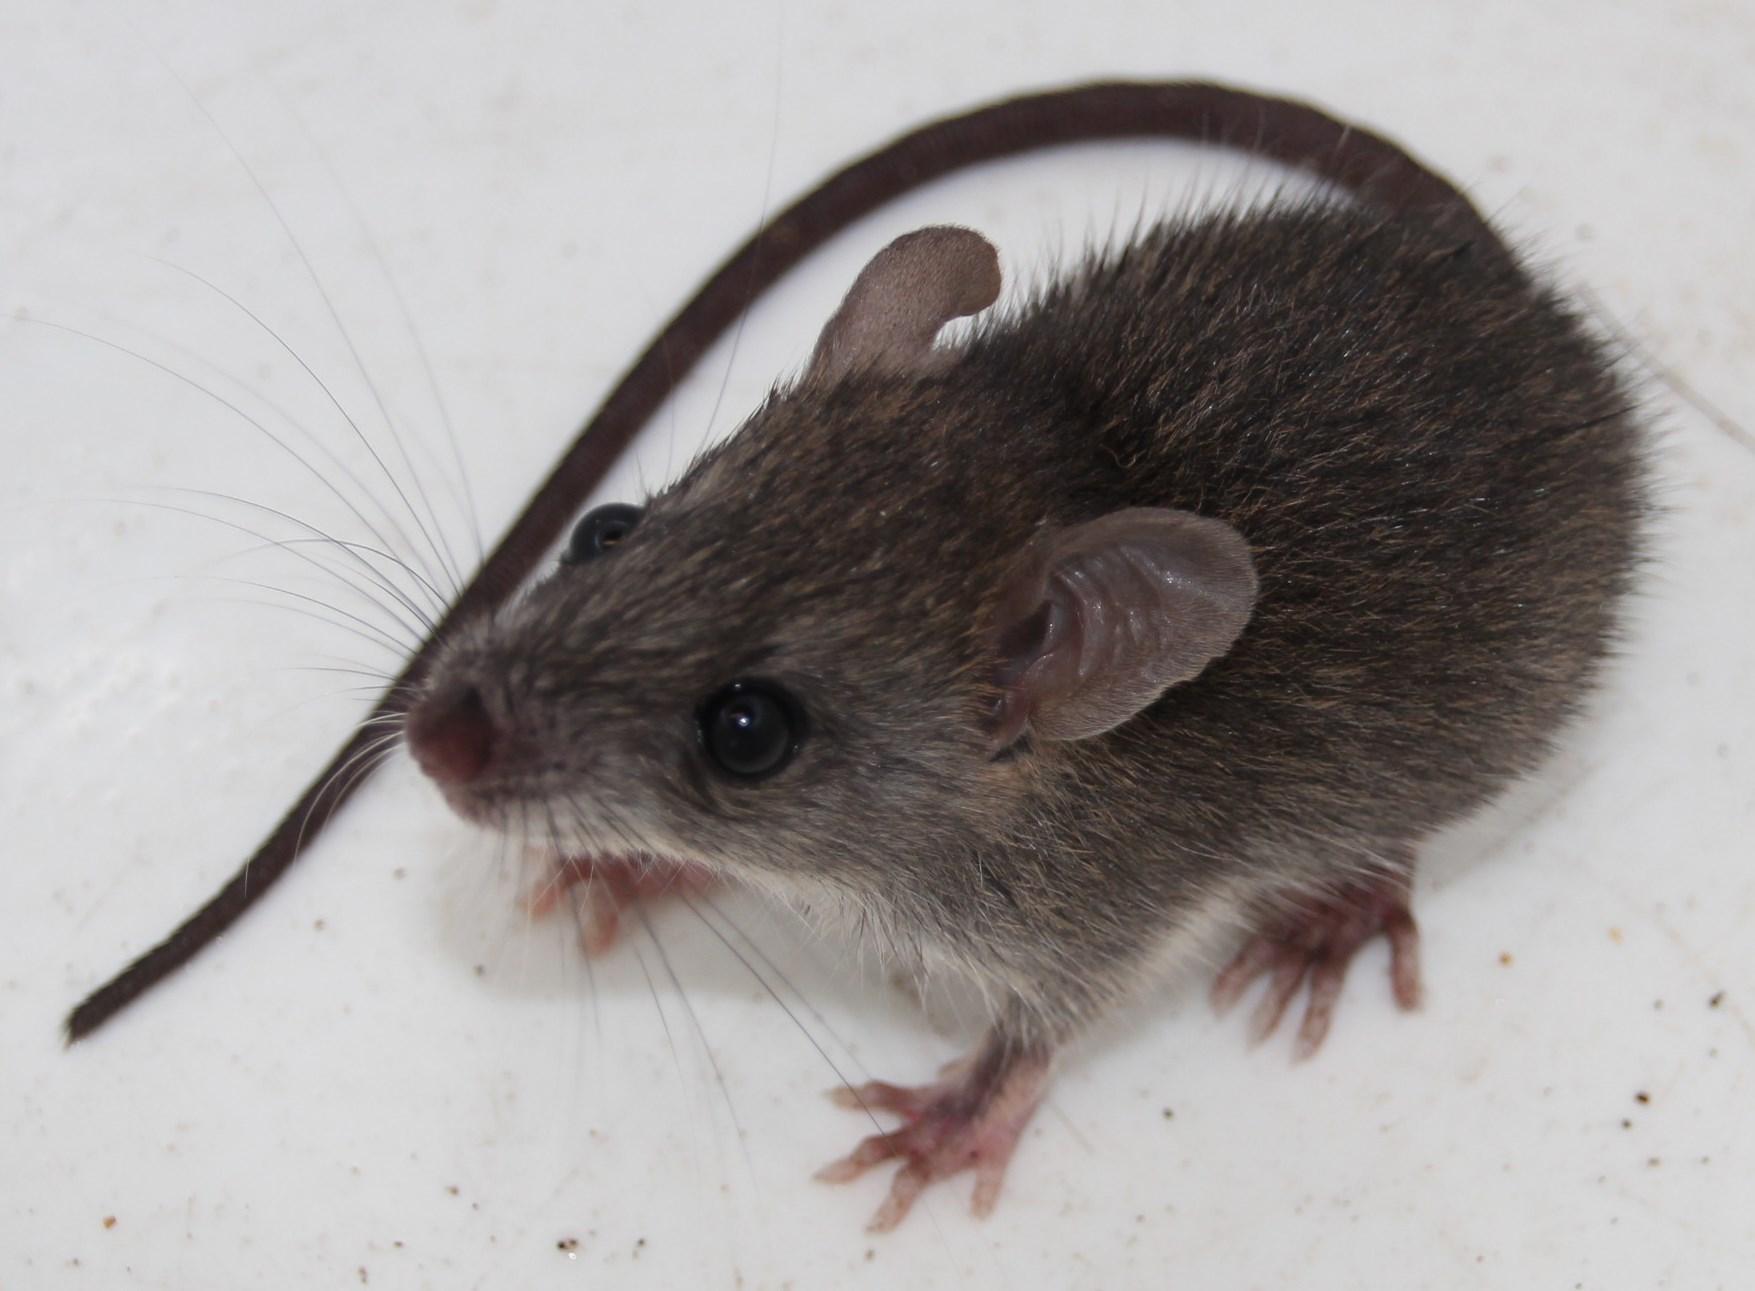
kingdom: Animalia
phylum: Chordata
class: Mammalia
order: Rodentia
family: Muridae
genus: Mus
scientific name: Mus musculus
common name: House mouse
